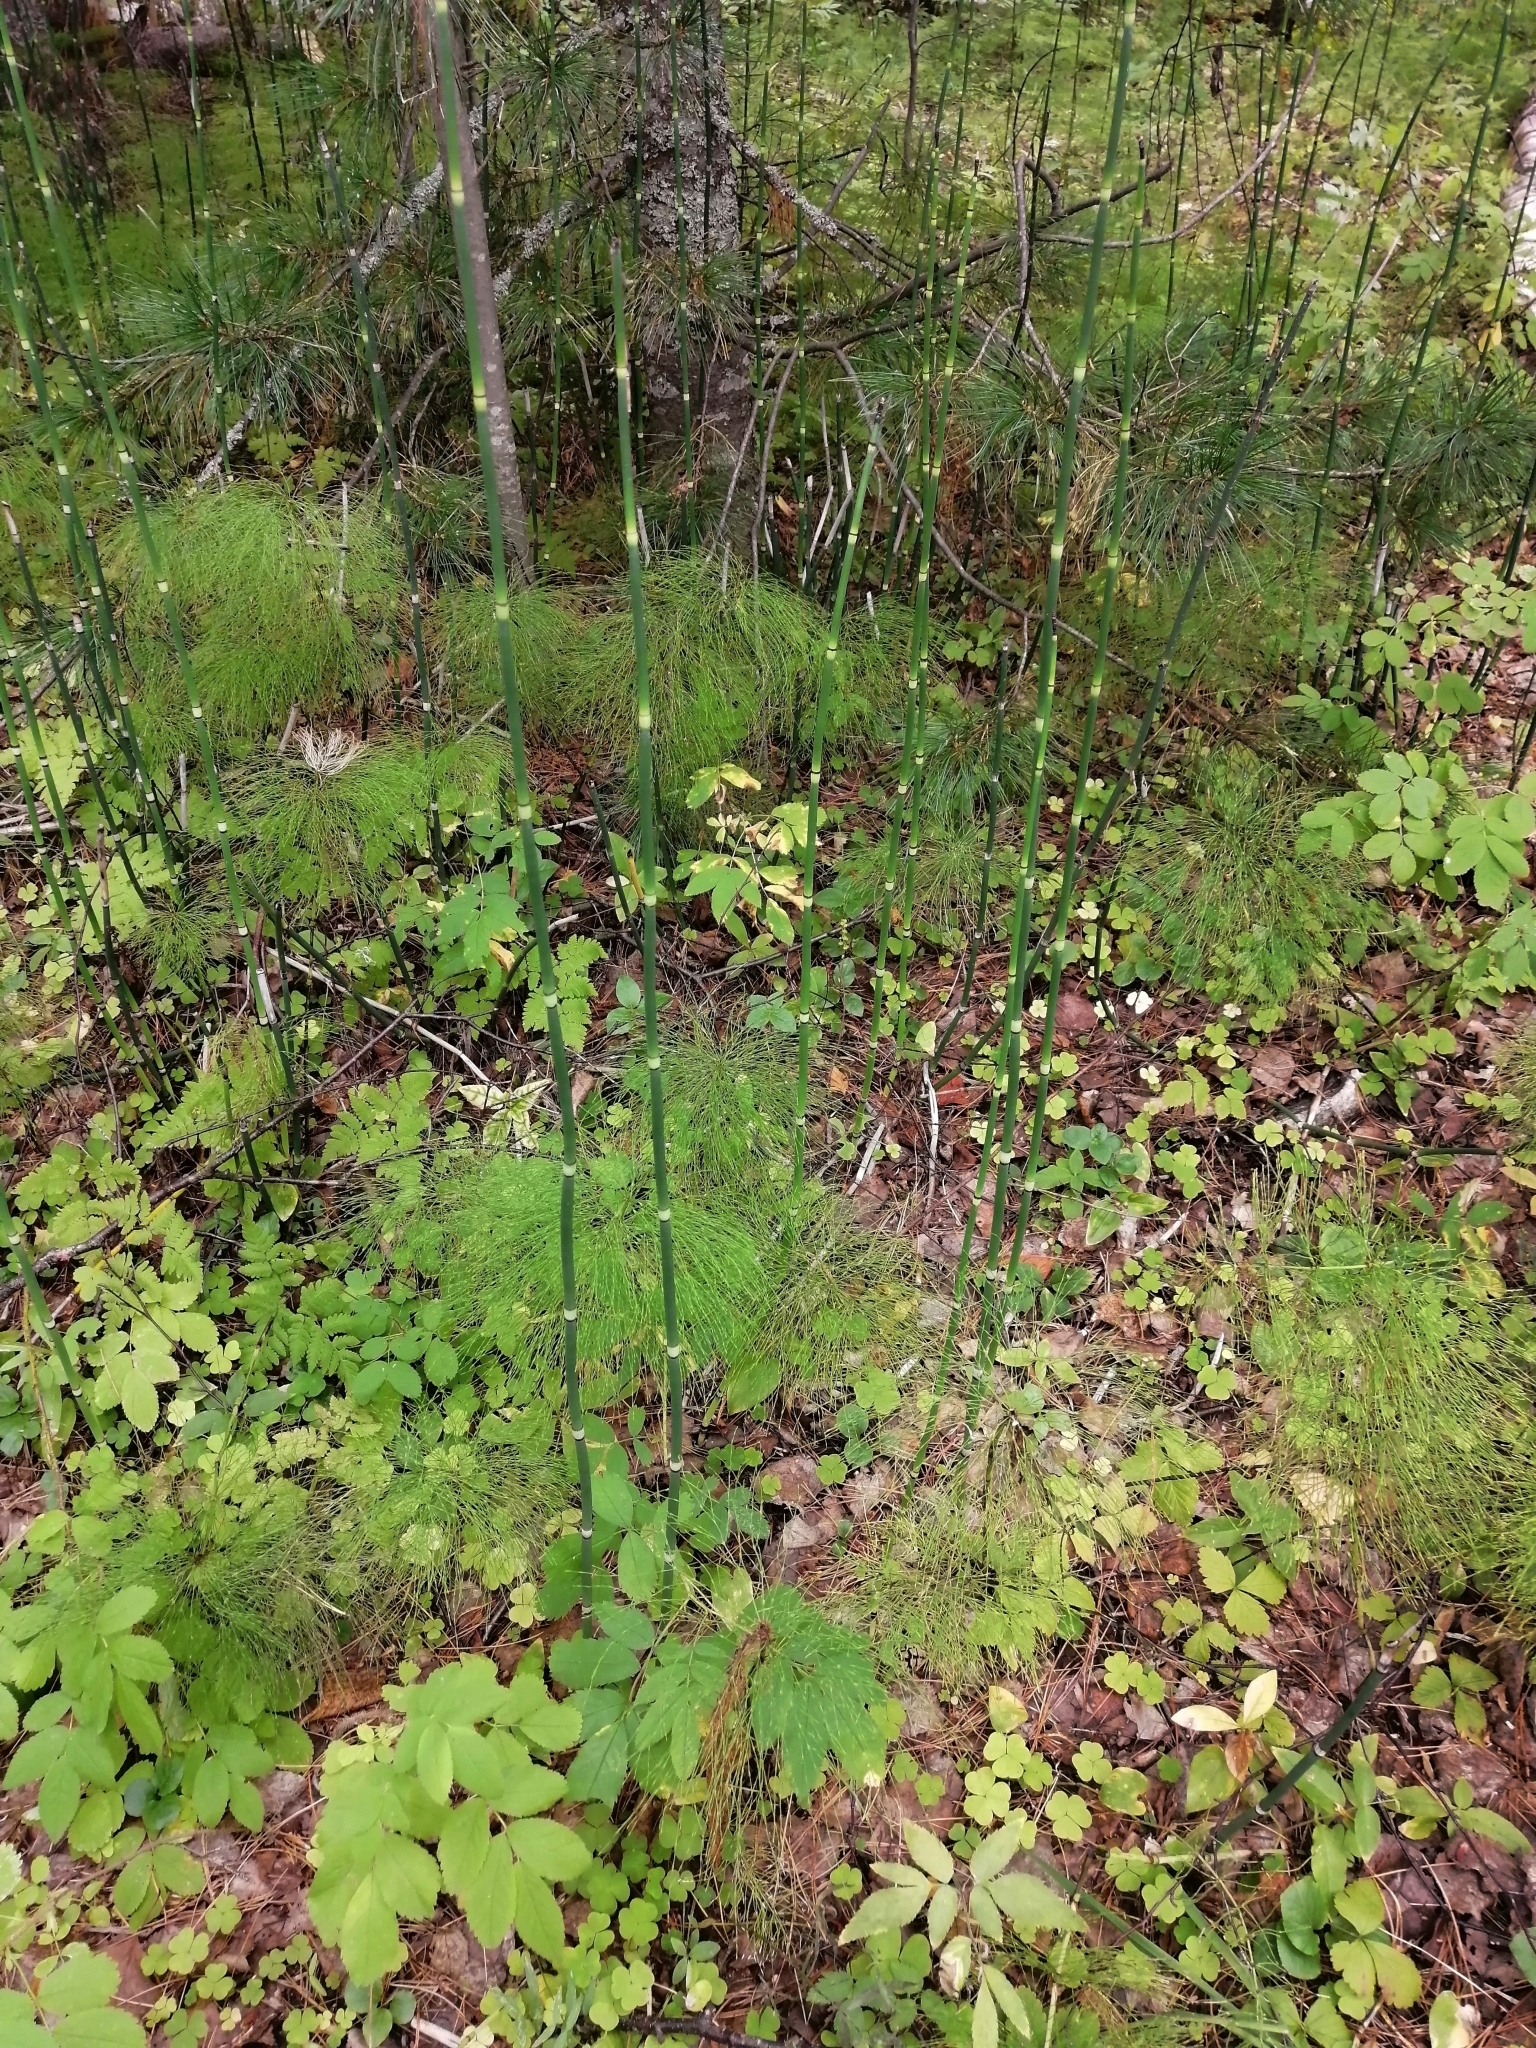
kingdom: Plantae
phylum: Tracheophyta
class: Polypodiopsida
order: Equisetales
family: Equisetaceae
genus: Equisetum
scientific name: Equisetum hyemale
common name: Rough horsetail
